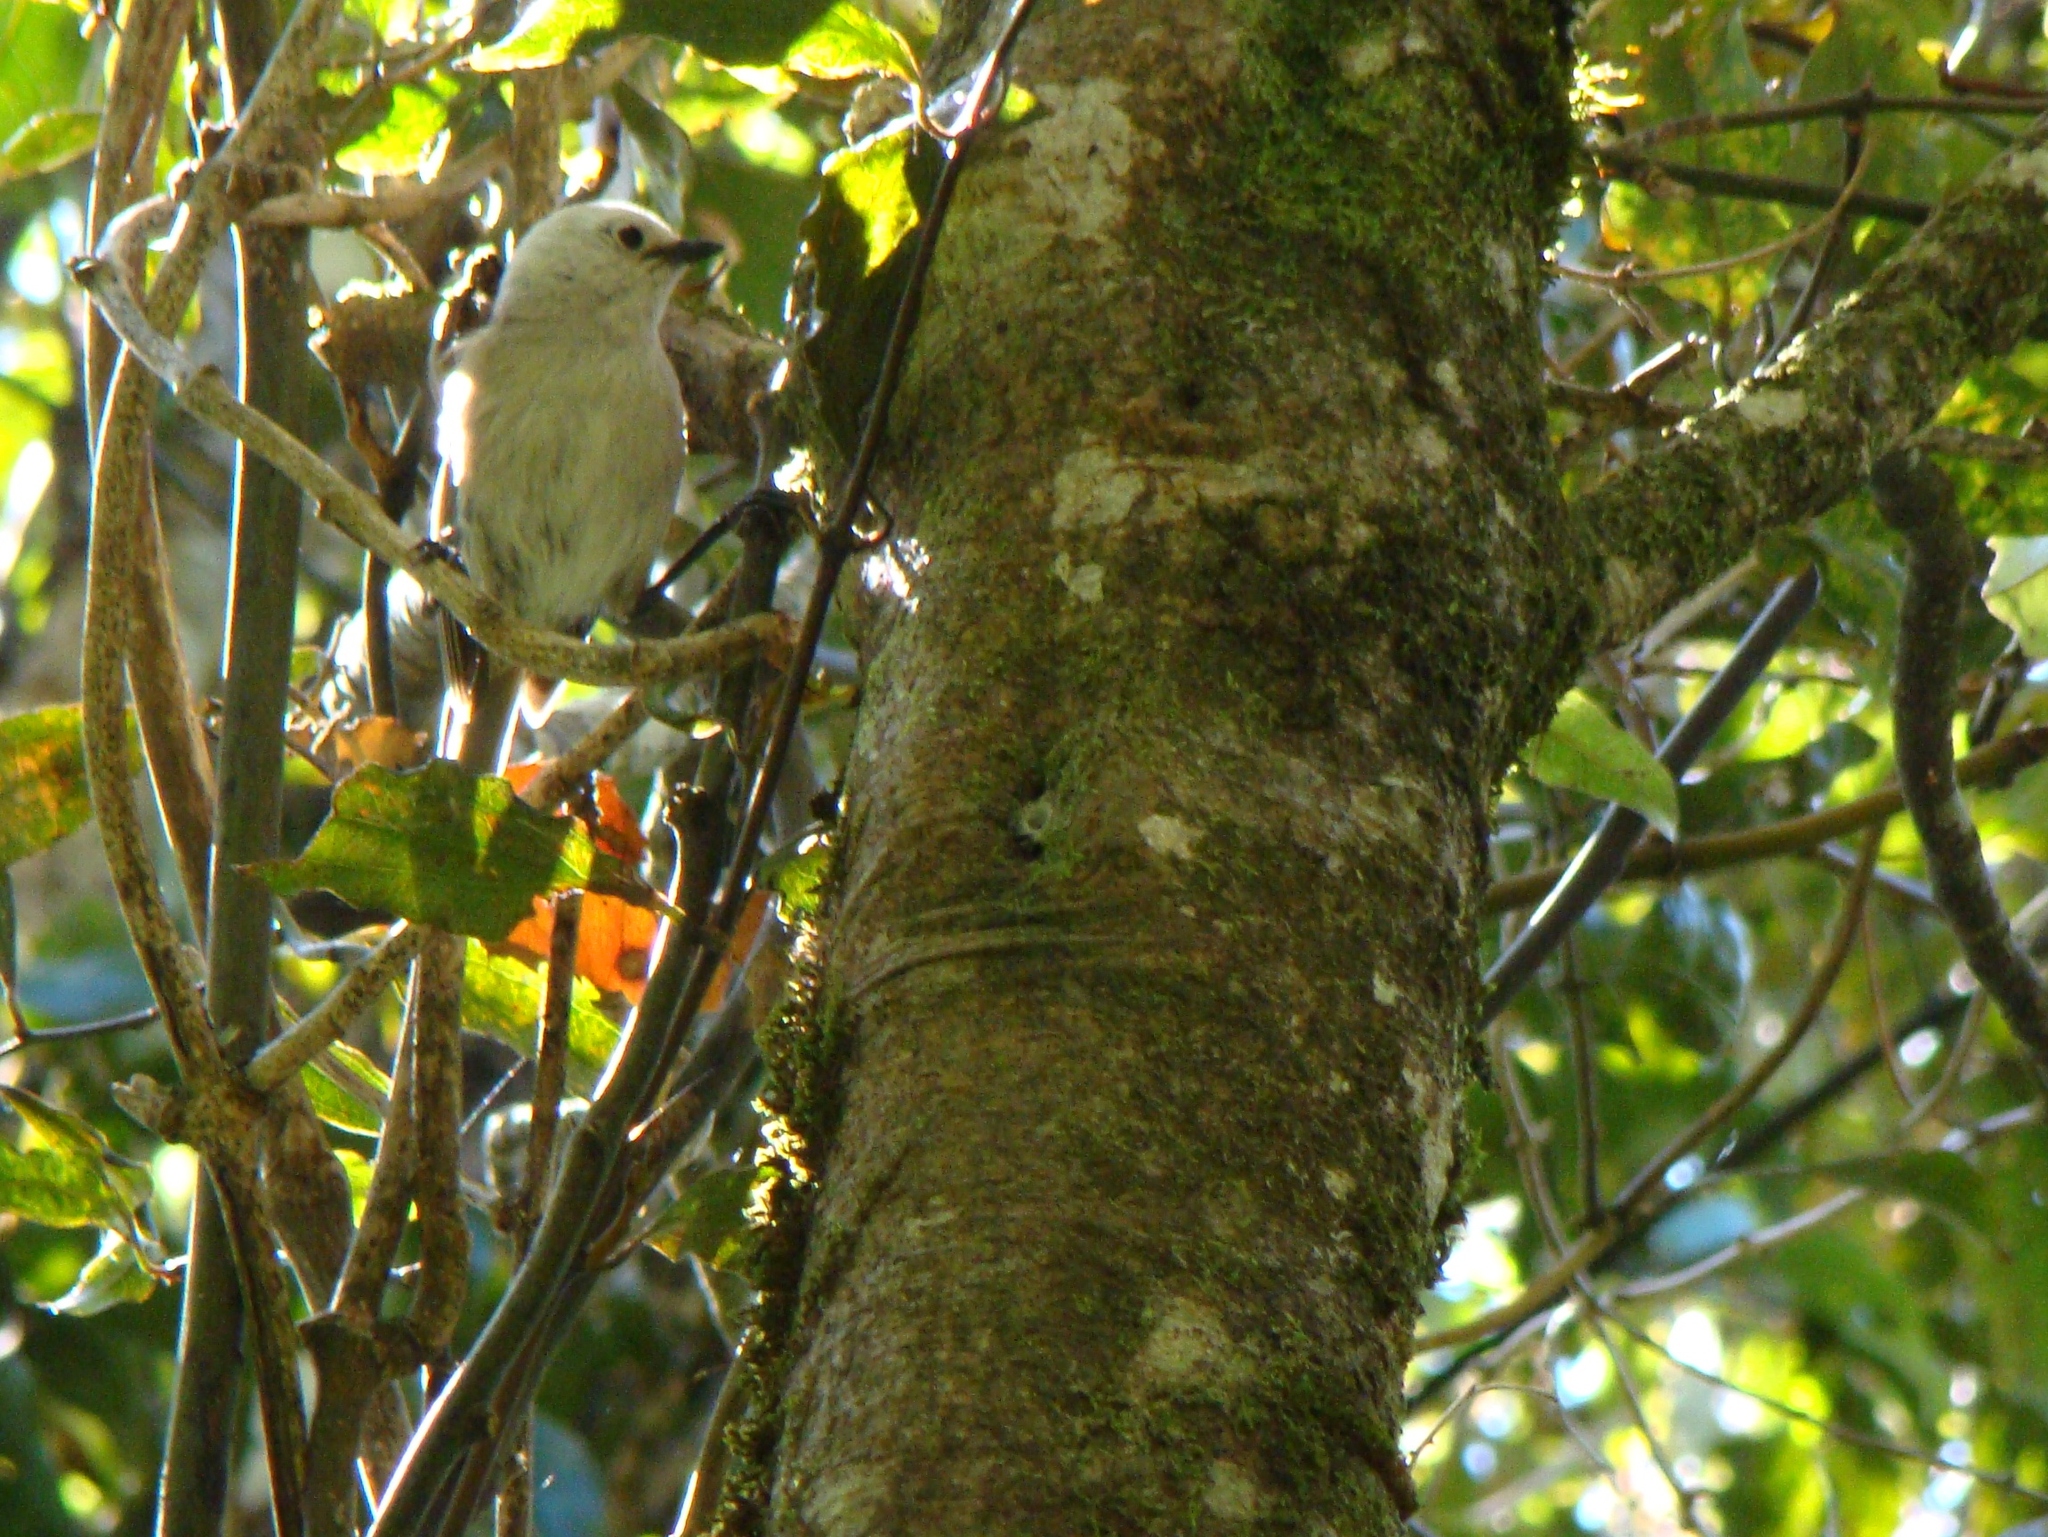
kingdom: Animalia
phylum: Chordata
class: Aves
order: Passeriformes
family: Acanthizidae
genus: Mohoua
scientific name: Mohoua albicilla
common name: Whitehead
